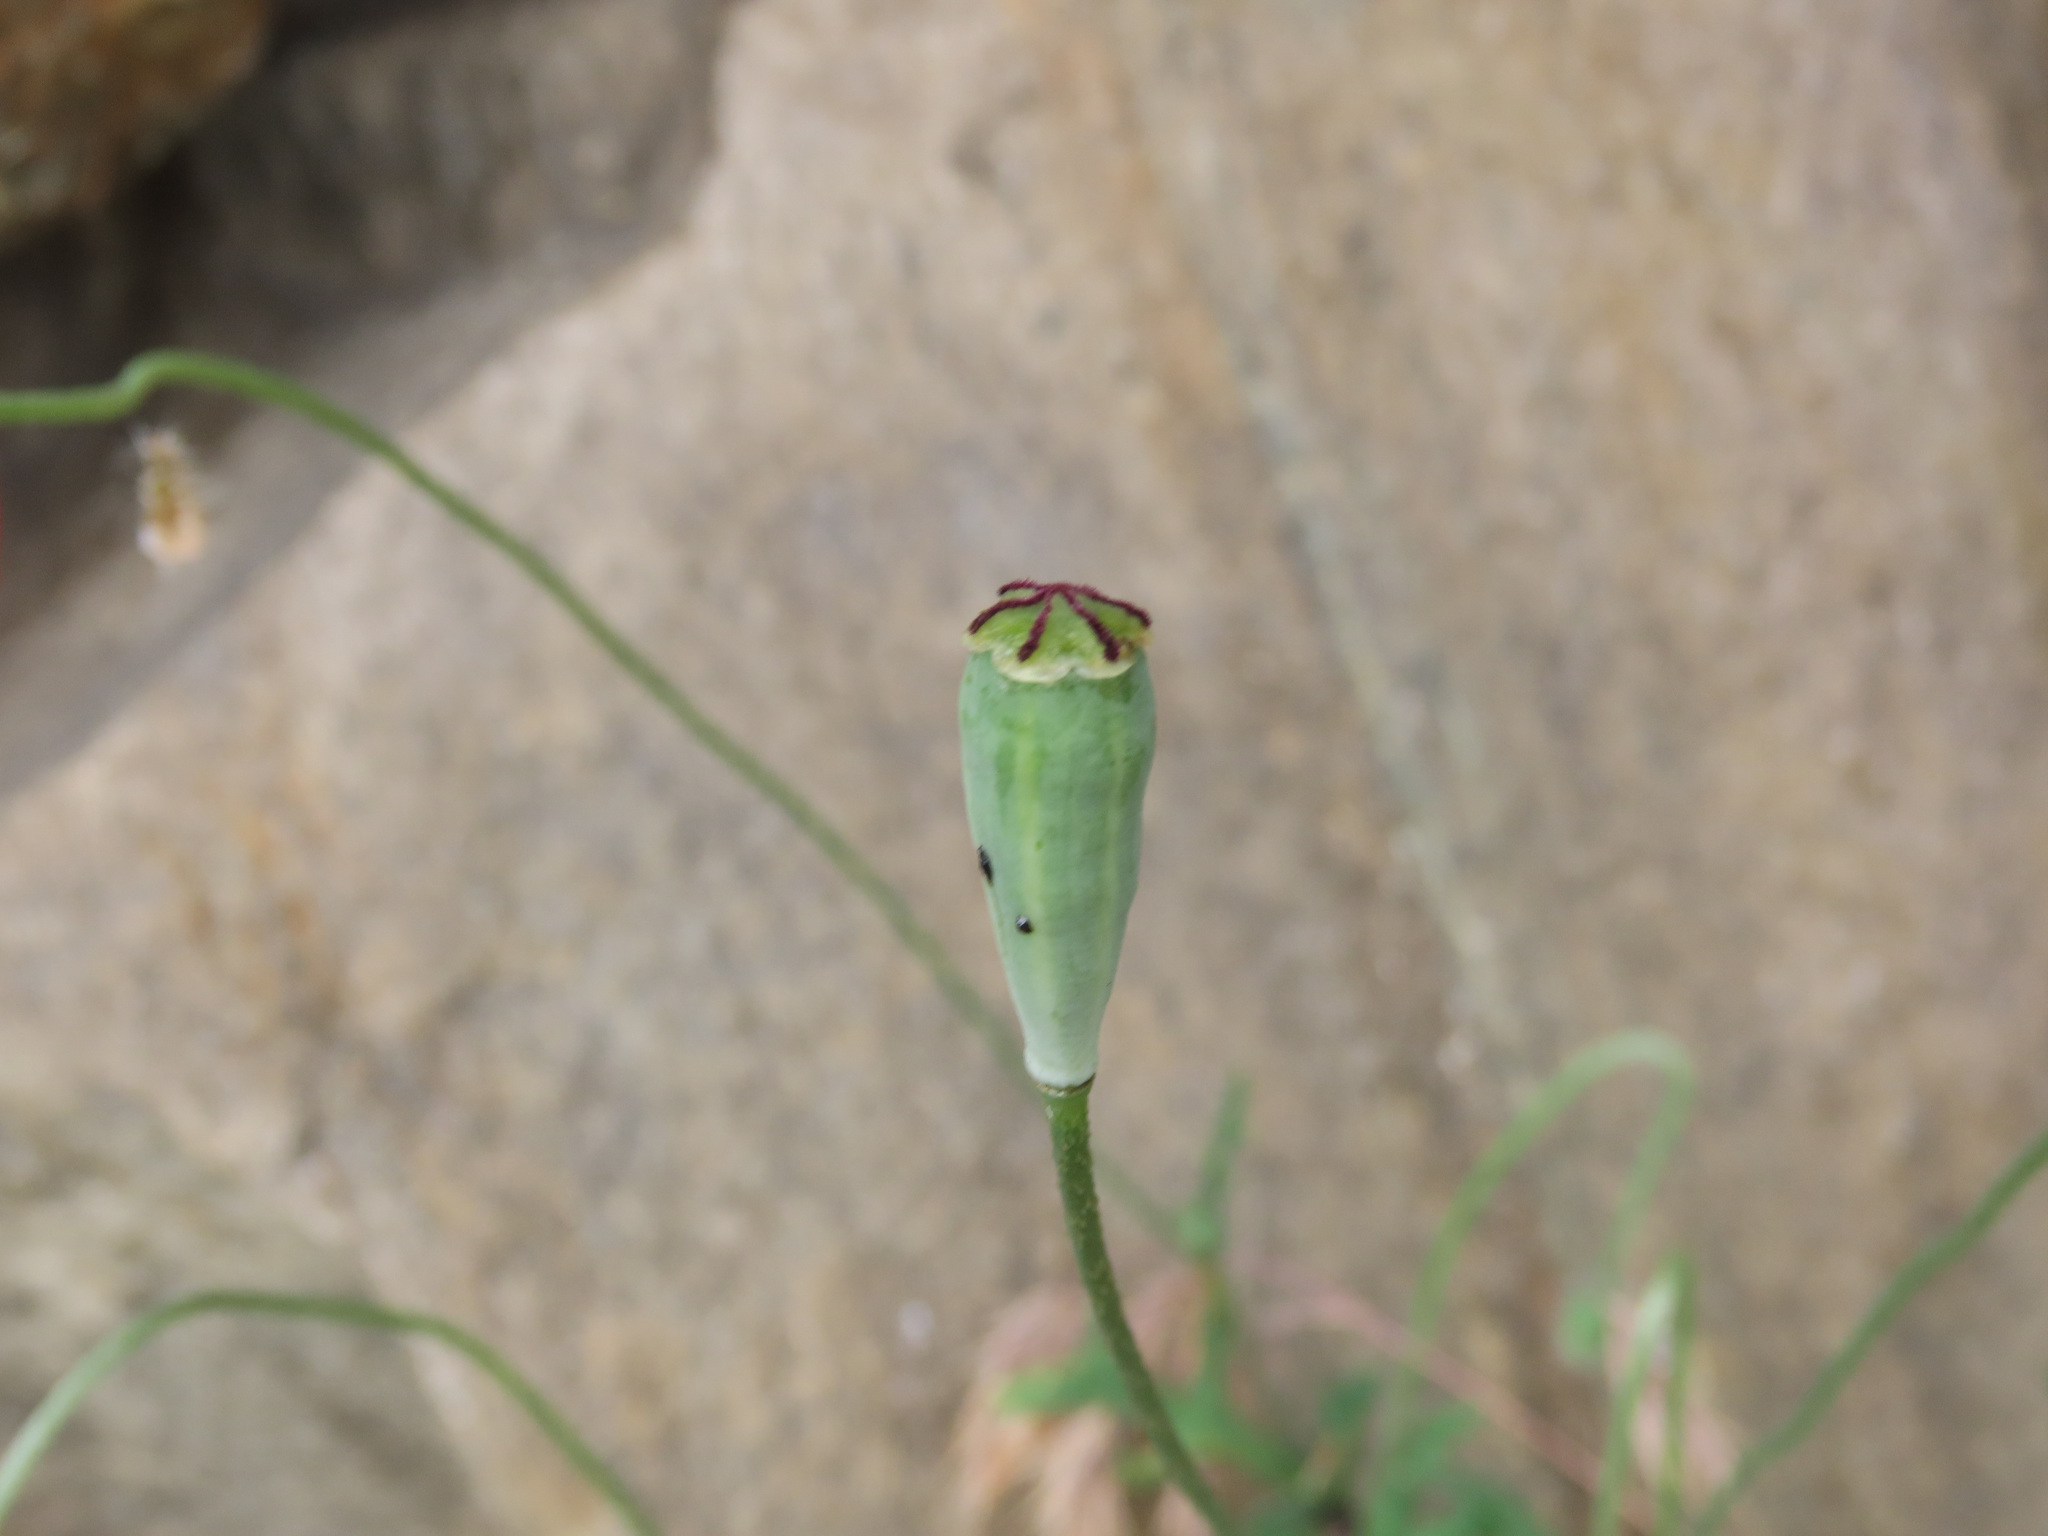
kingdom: Plantae
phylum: Tracheophyta
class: Magnoliopsida
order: Ranunculales
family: Papaveraceae
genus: Papaver
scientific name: Papaver dubium
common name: Long-headed poppy
